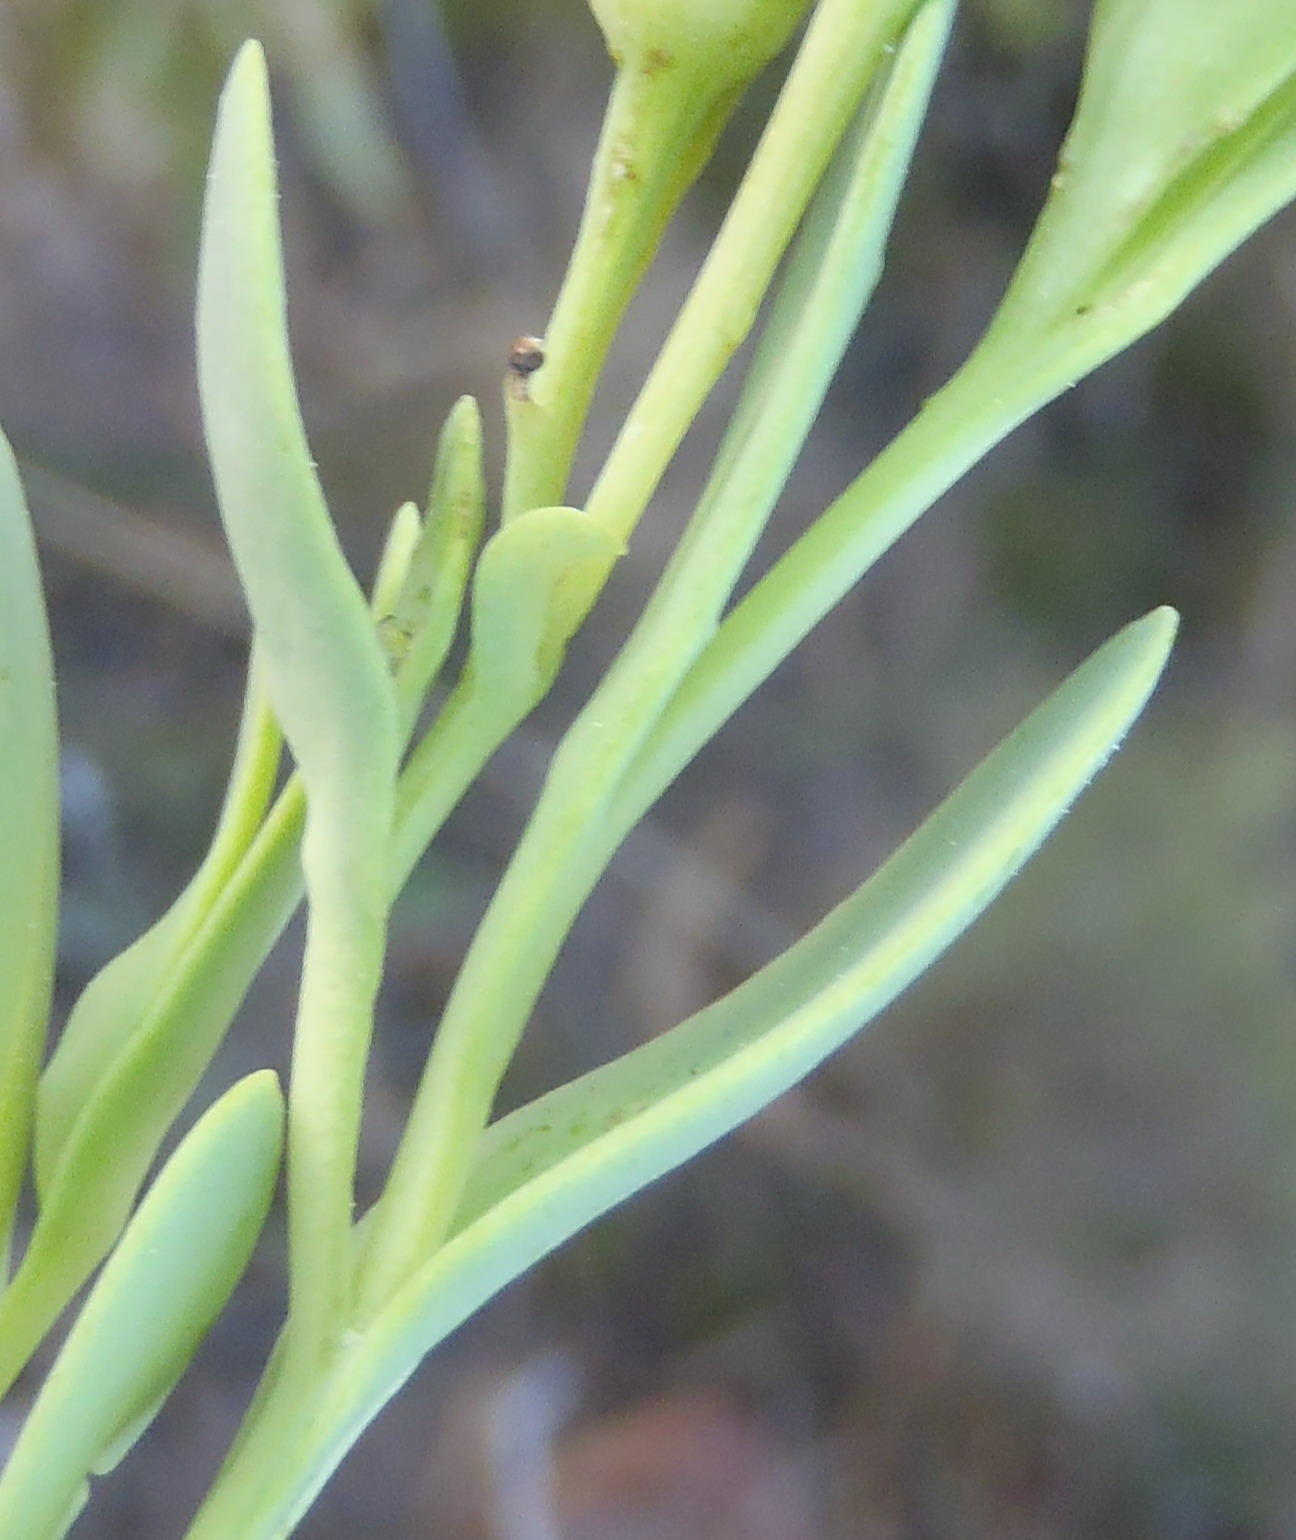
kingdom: Plantae
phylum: Tracheophyta
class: Magnoliopsida
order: Asterales
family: Asteraceae
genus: Hertia
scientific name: Hertia kraussii
